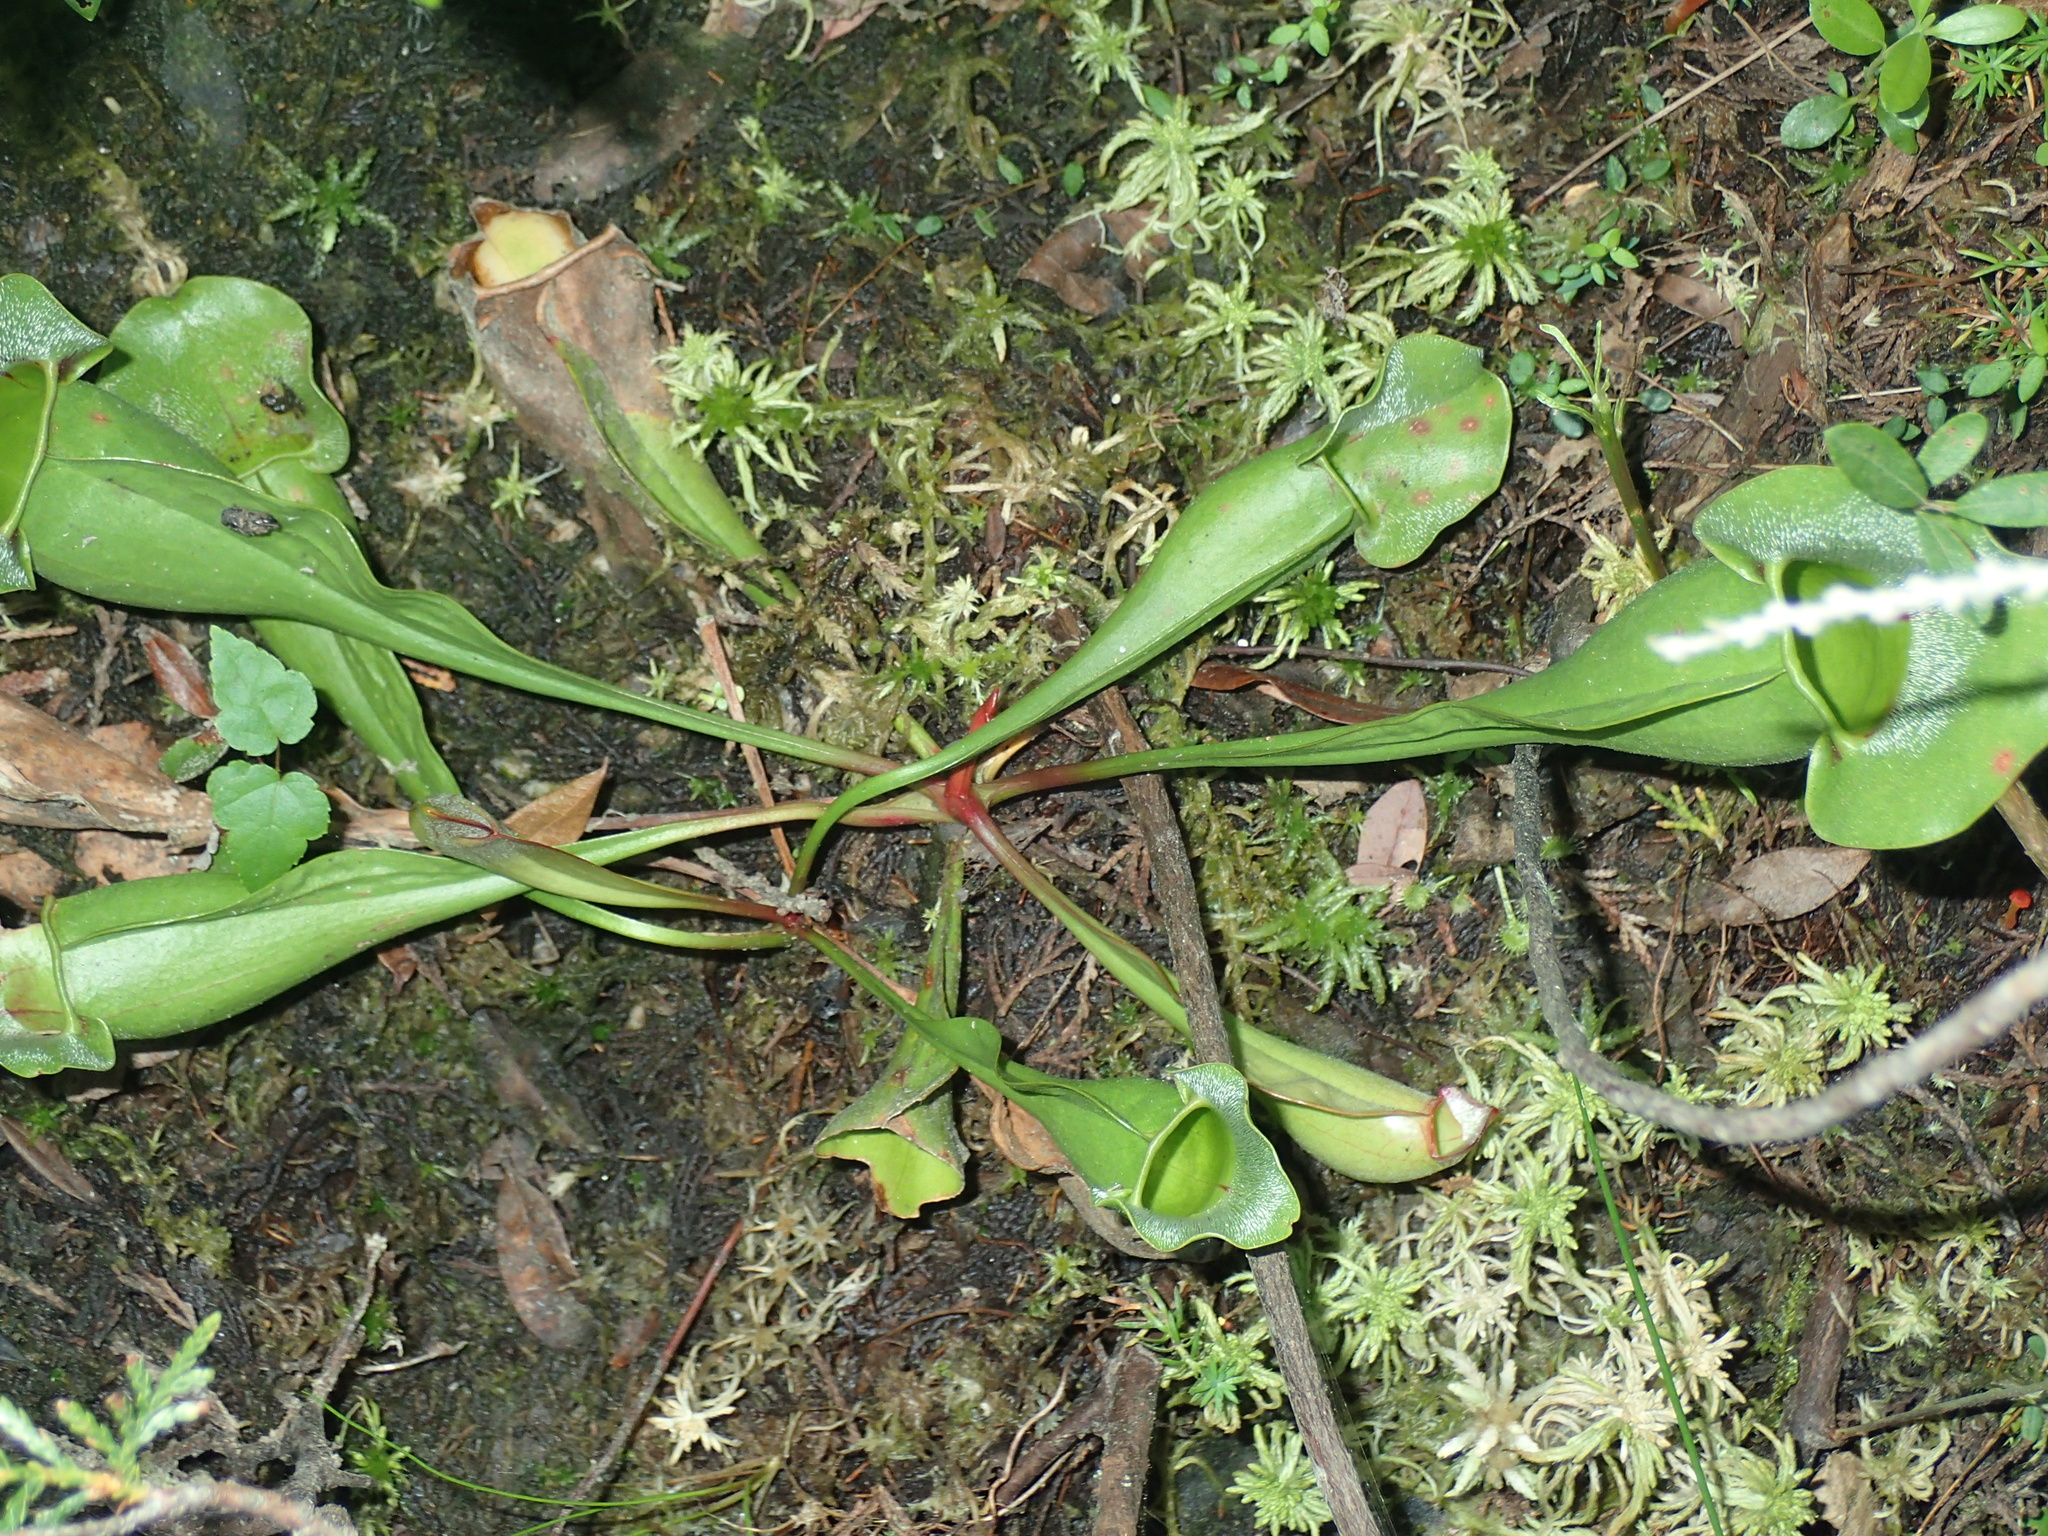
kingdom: Plantae
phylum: Tracheophyta
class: Magnoliopsida
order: Ericales
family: Sarraceniaceae
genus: Sarracenia
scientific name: Sarracenia purpurea
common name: Pitcherplant
